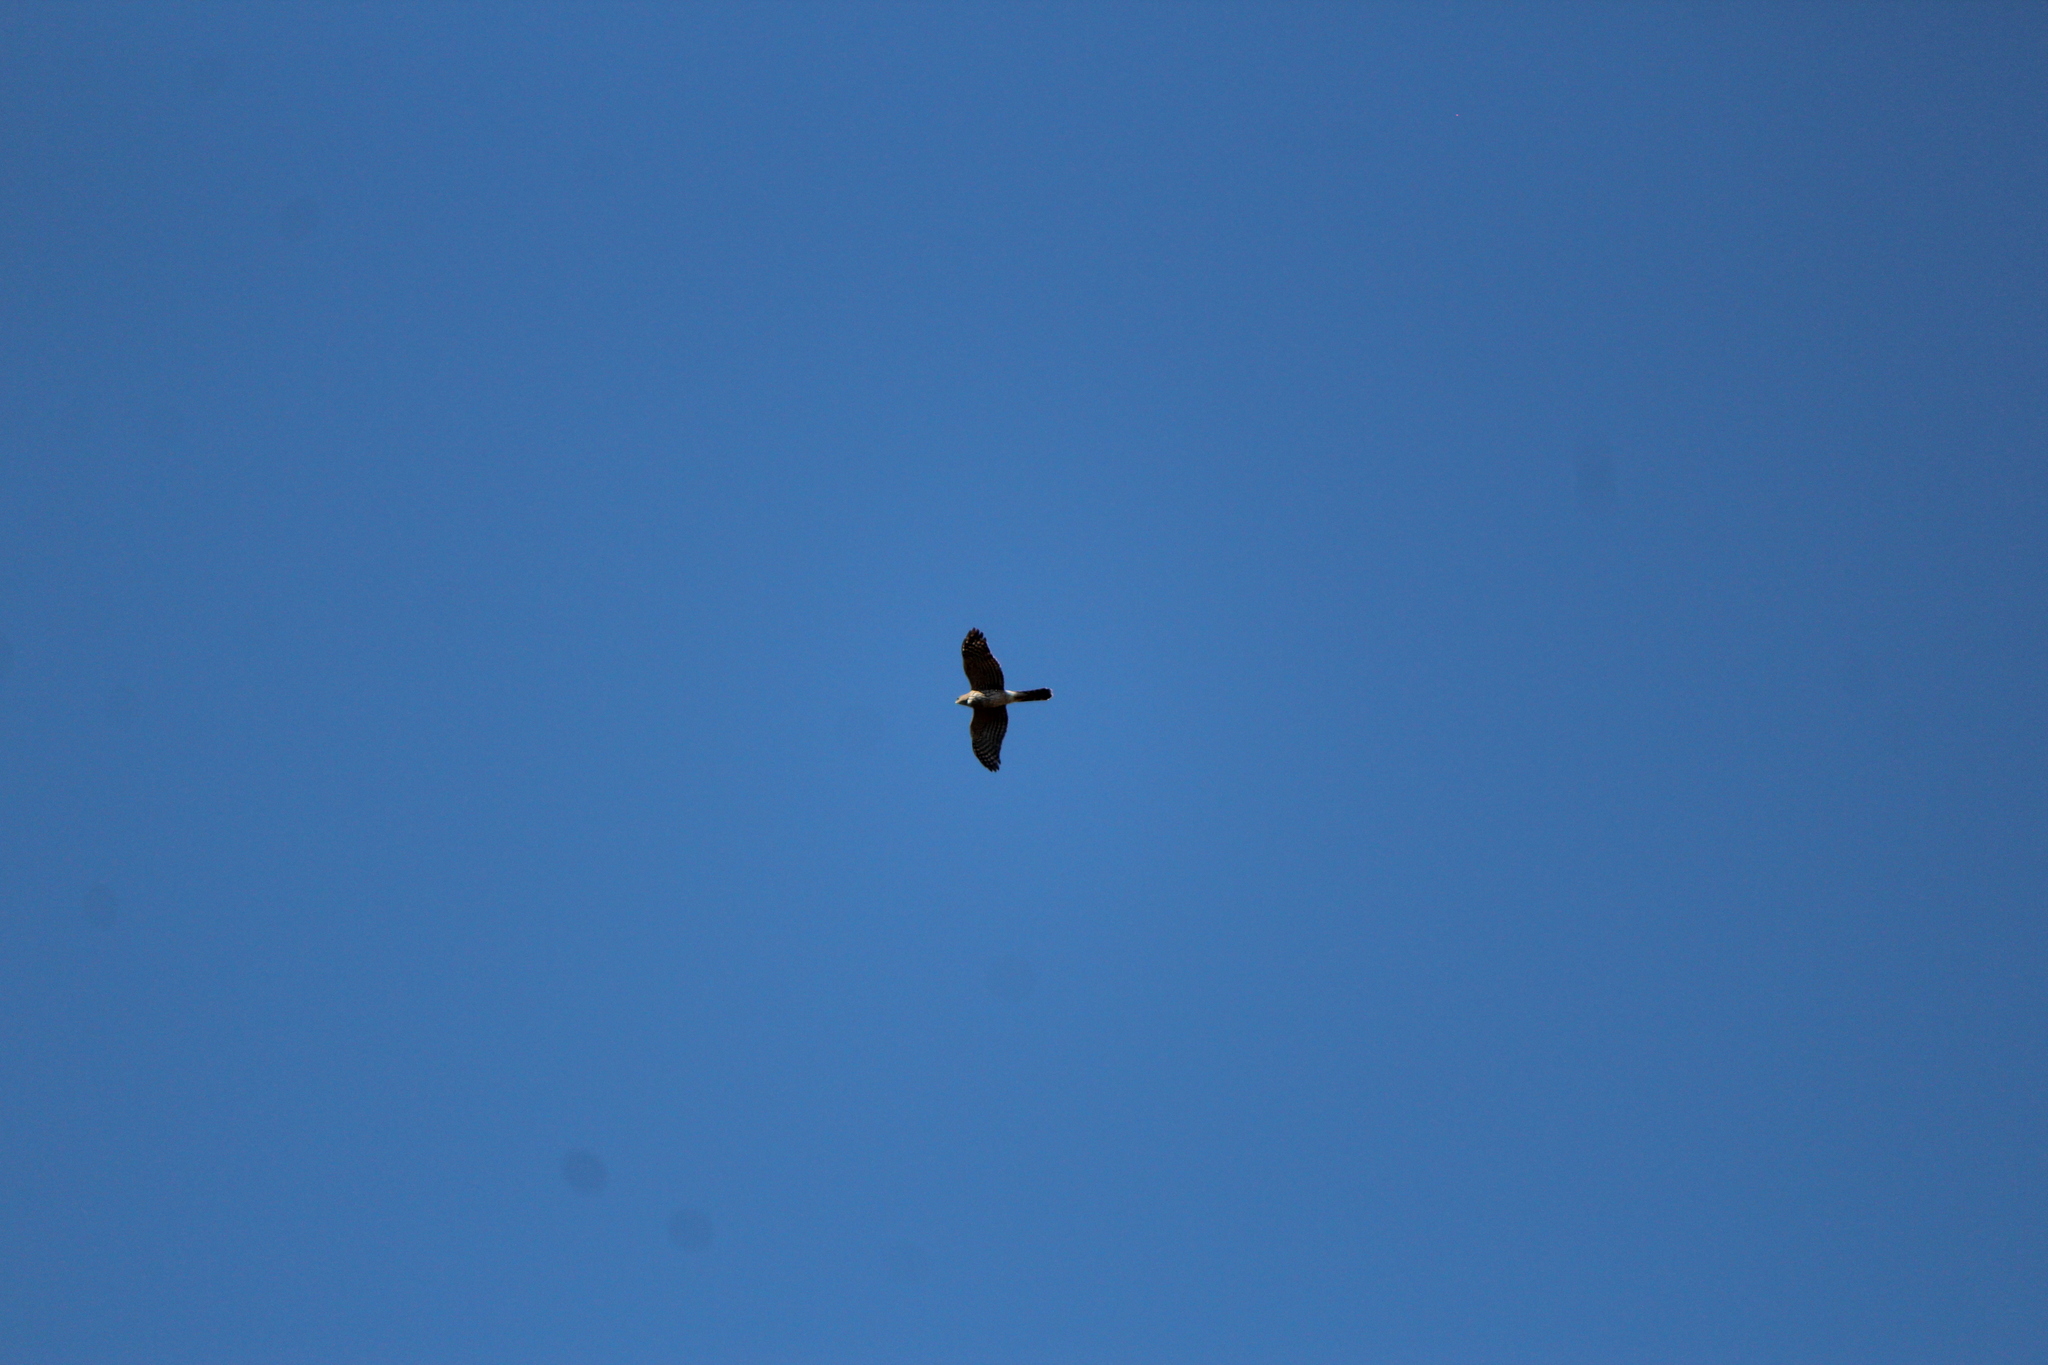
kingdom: Animalia
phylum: Chordata
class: Aves
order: Accipitriformes
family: Accipitridae
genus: Accipiter
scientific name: Accipiter cooperii
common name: Cooper's hawk
